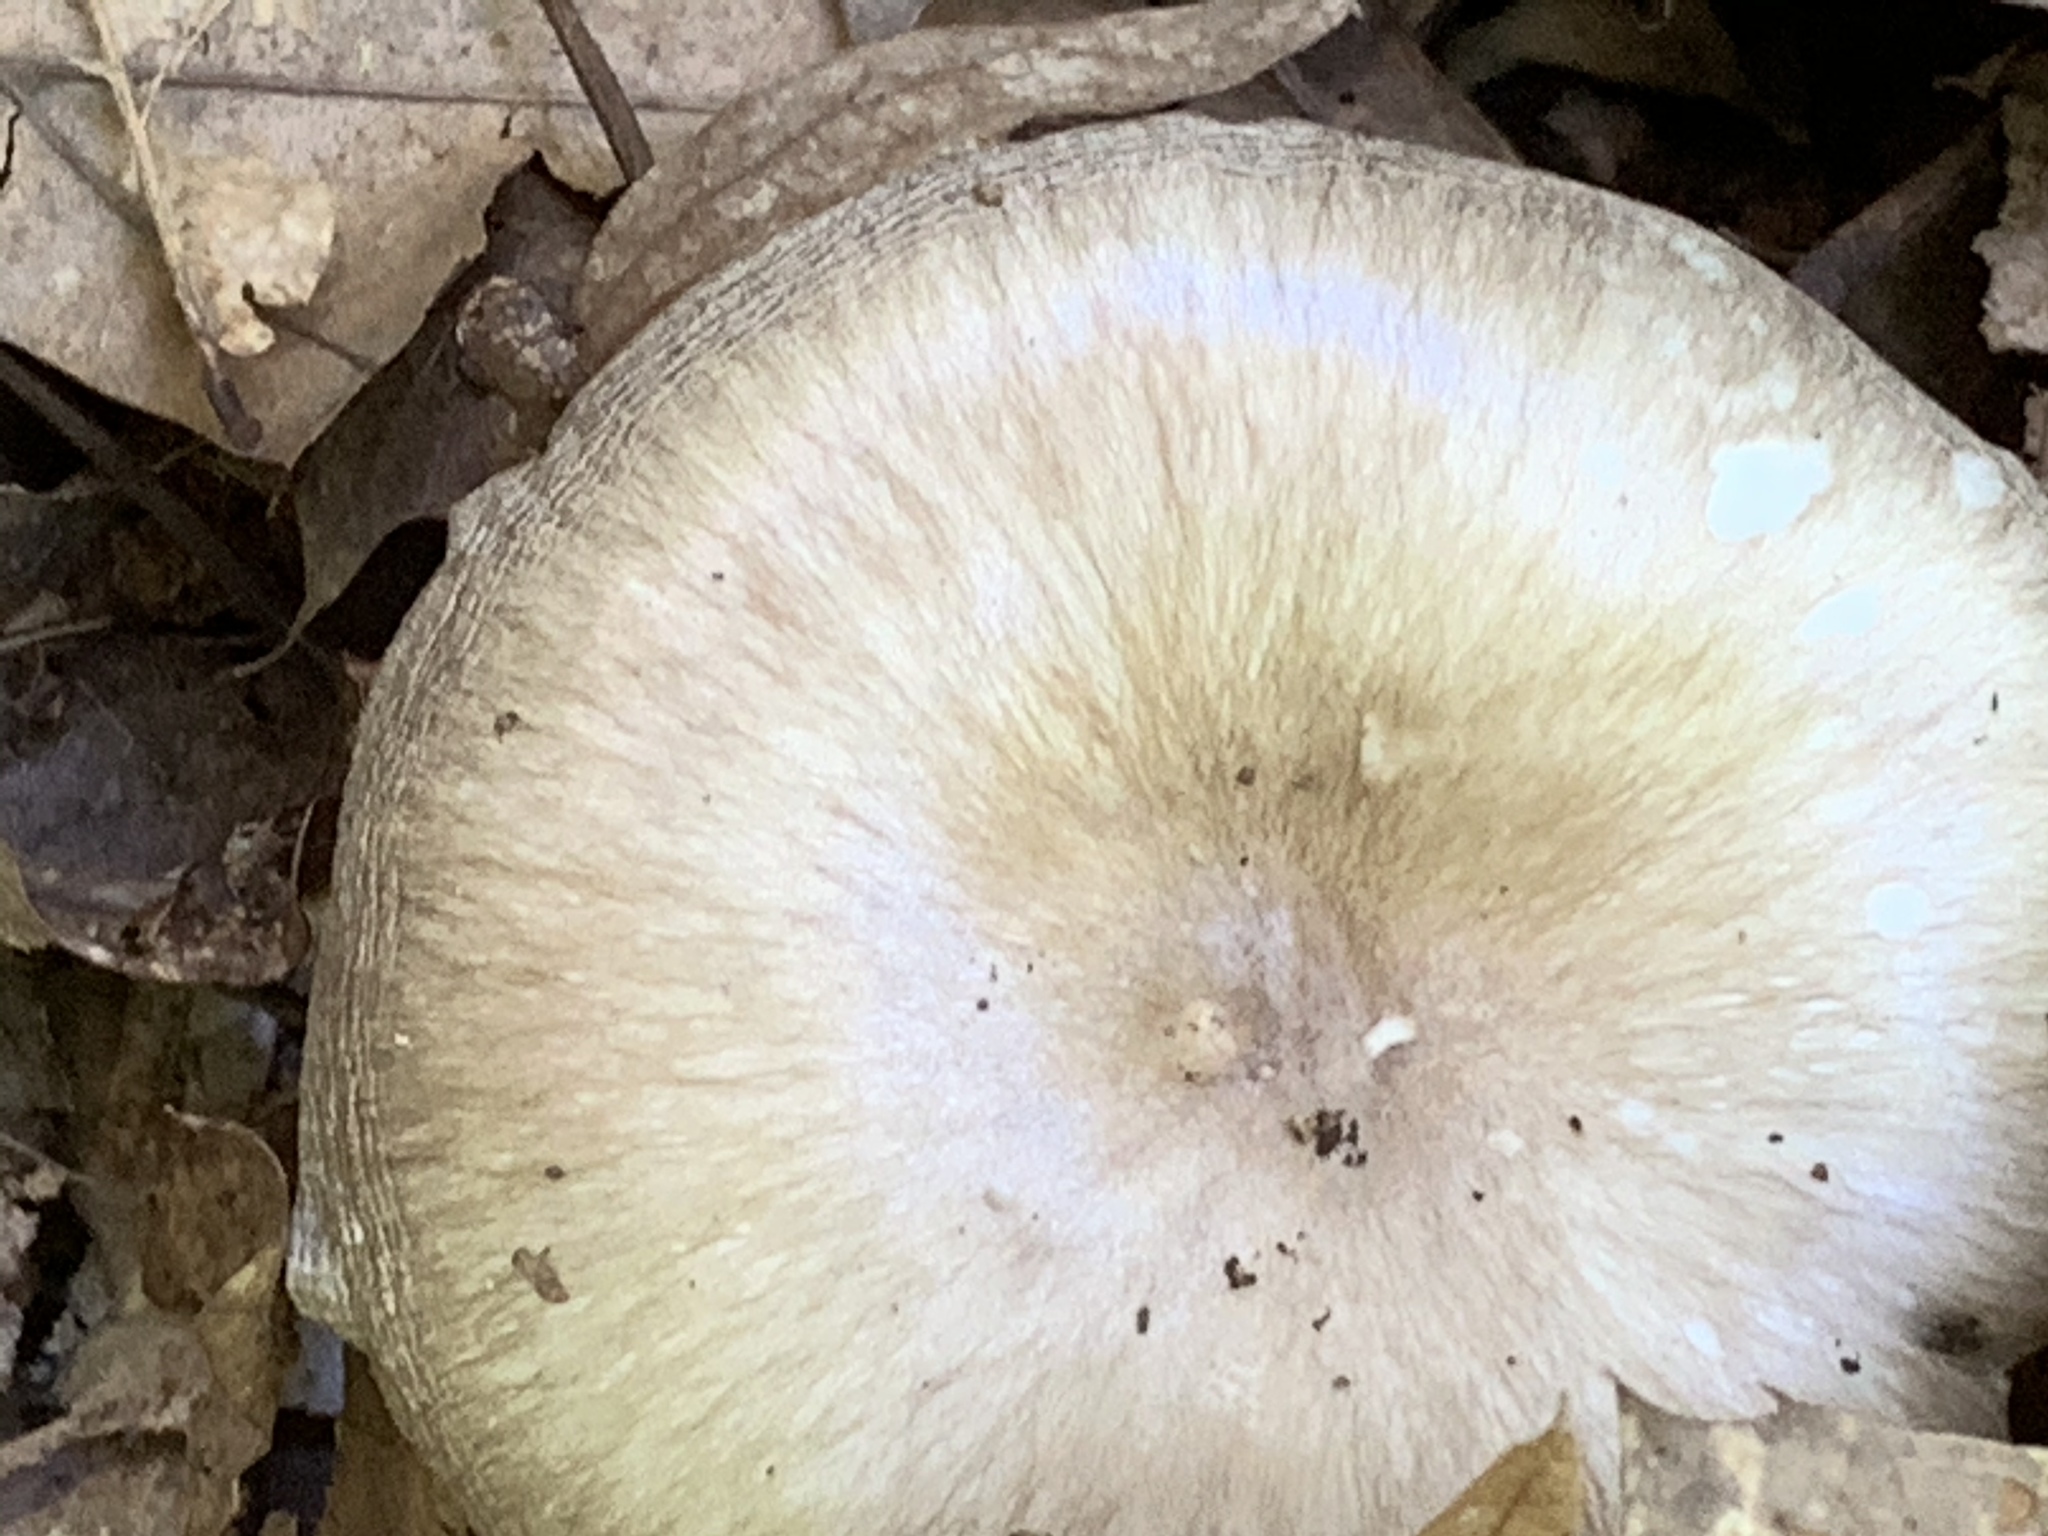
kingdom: Fungi
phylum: Basidiomycota
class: Agaricomycetes
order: Agaricales
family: Pluteaceae
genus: Pluteus
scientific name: Pluteus cervinus
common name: Deer shield
